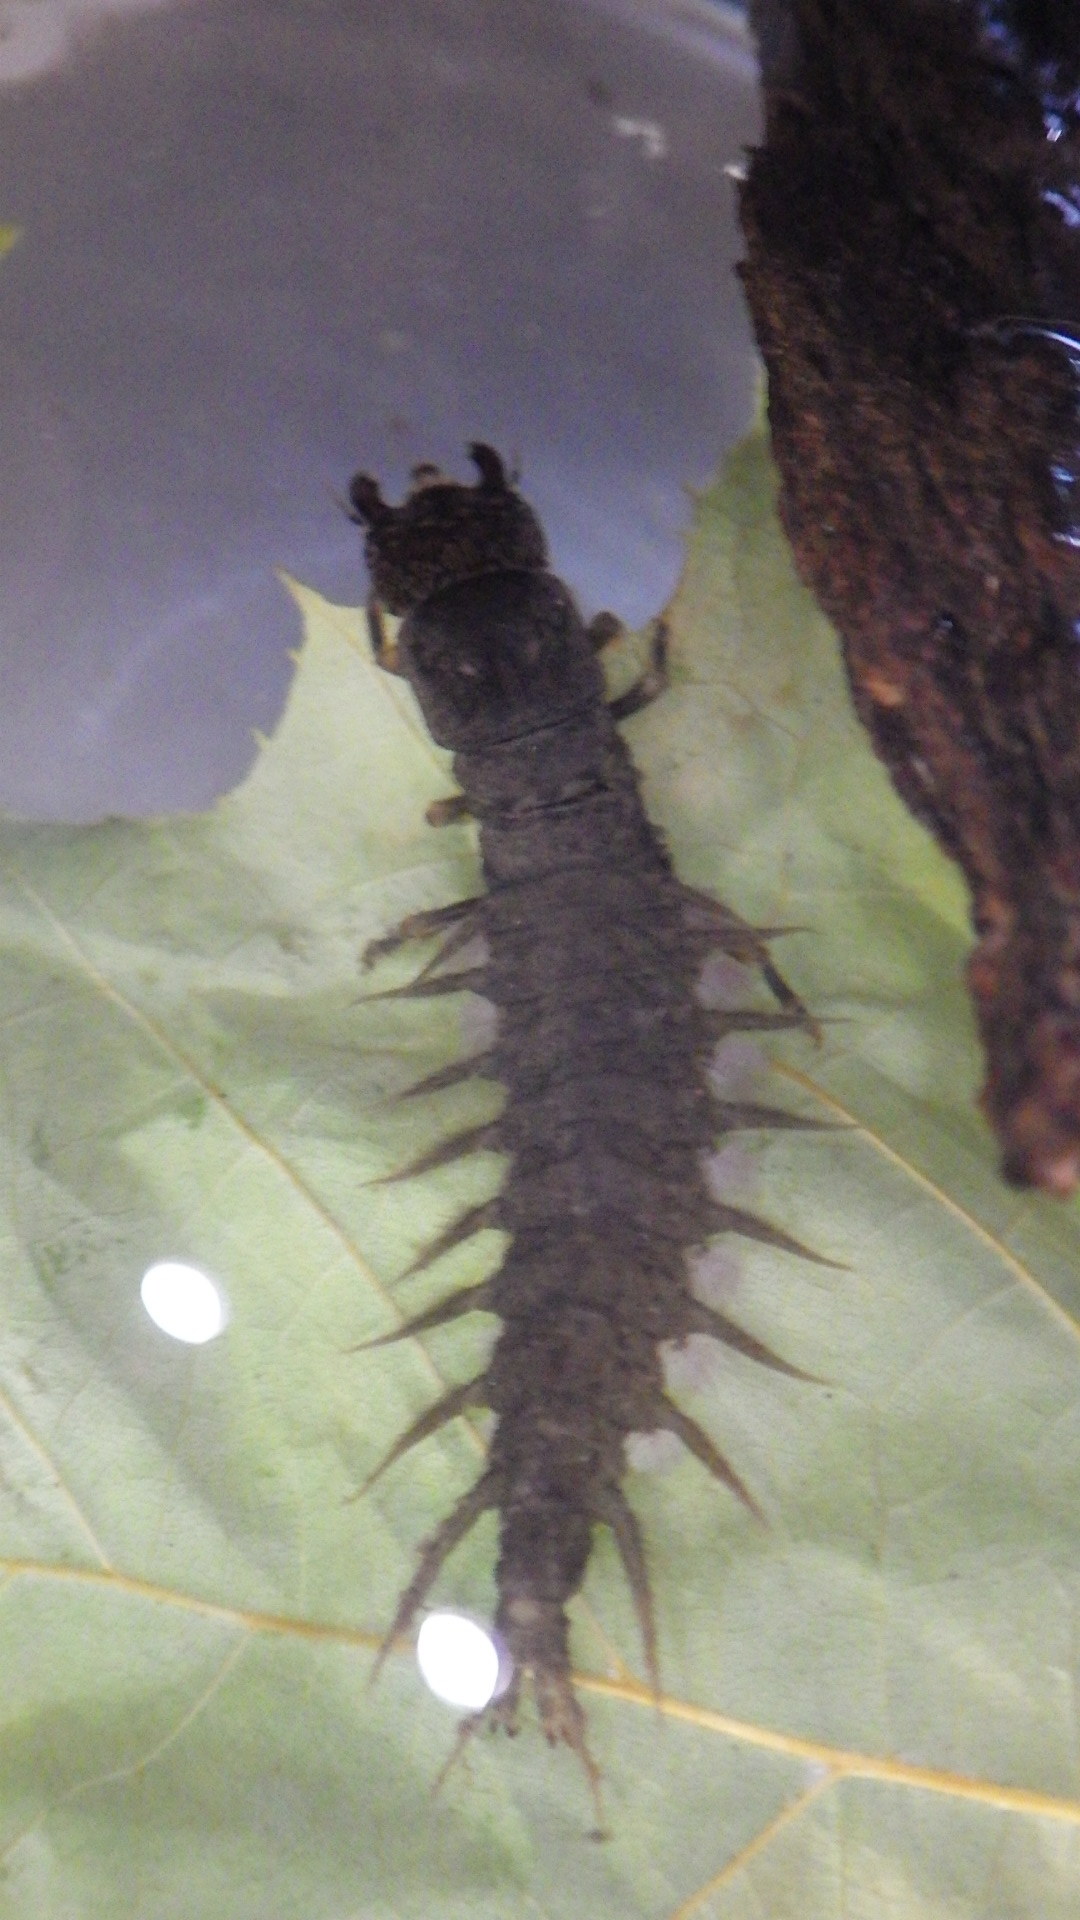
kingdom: Animalia
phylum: Arthropoda
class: Insecta
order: Megaloptera
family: Corydalidae
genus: Corydalus
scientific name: Corydalus cornutus
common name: Dobsonfly
